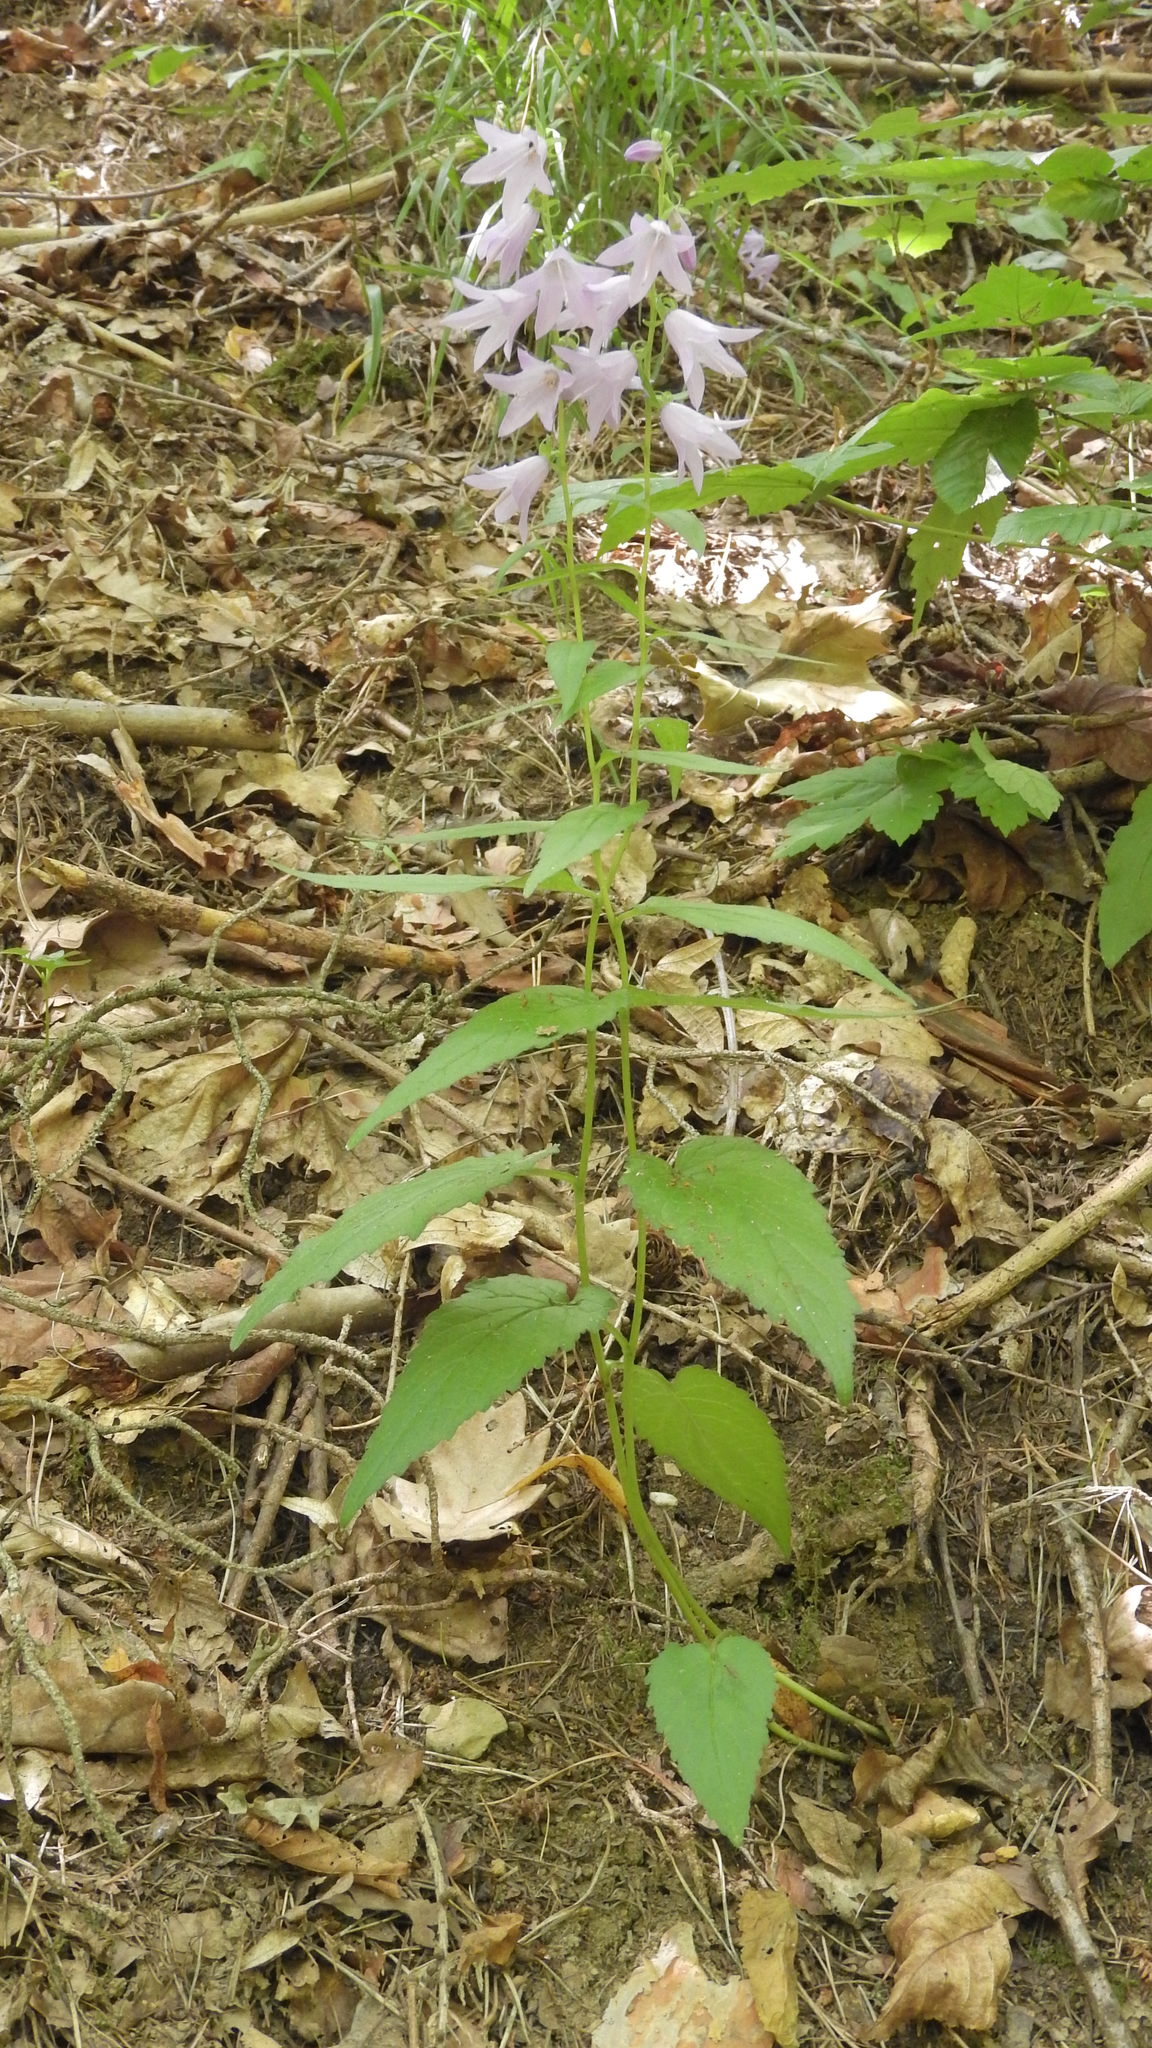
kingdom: Plantae
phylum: Tracheophyta
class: Magnoliopsida
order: Asterales
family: Campanulaceae
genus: Campanula
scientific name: Campanula rapunculoides
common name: Creeping bellflower
